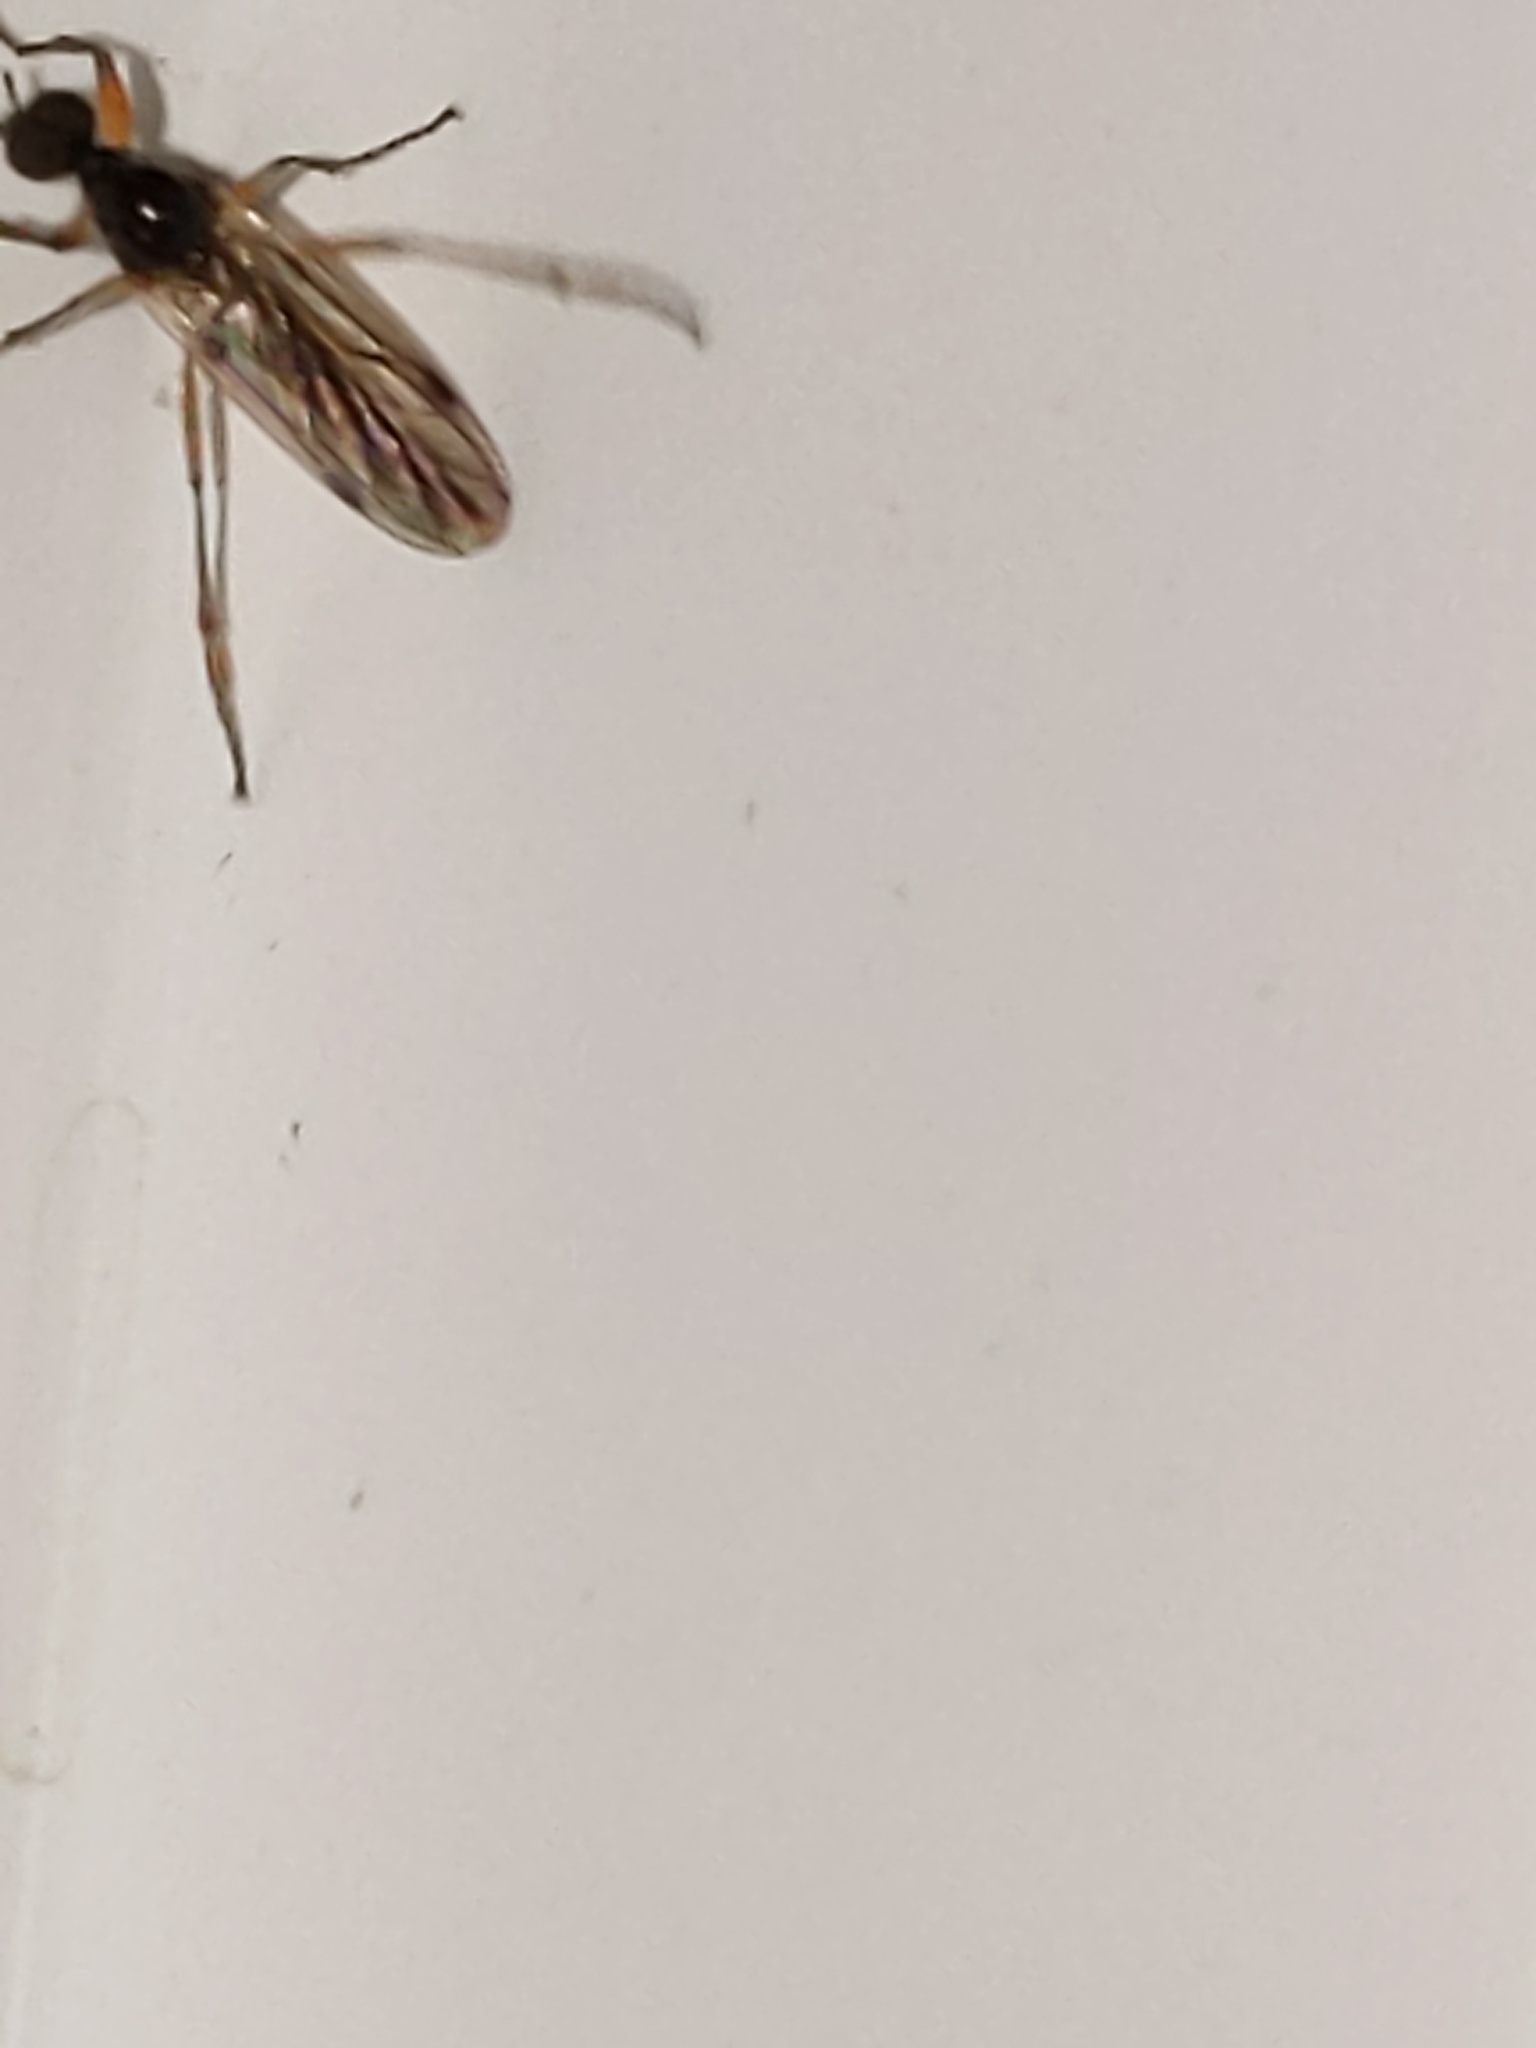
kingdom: Animalia
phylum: Arthropoda
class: Insecta
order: Diptera
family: Bibionidae
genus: Bibio
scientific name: Bibio townesi
